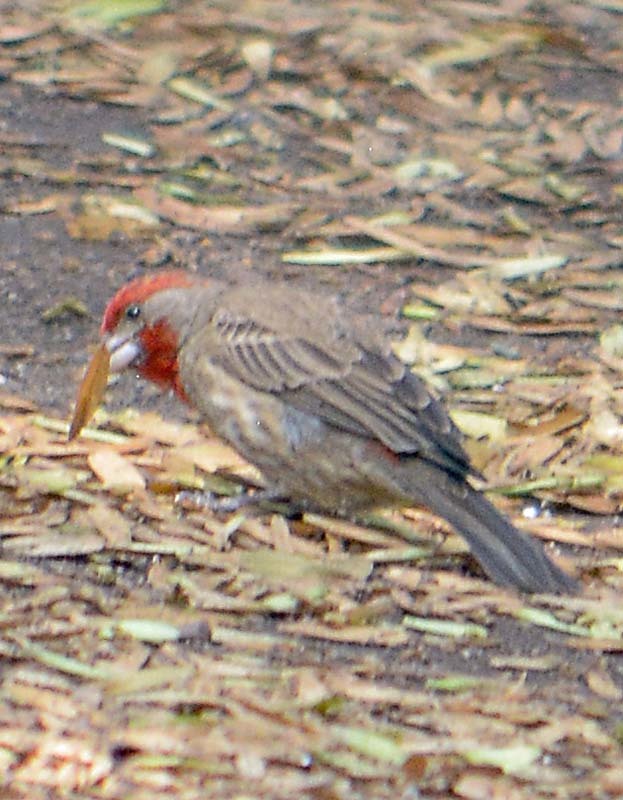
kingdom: Animalia
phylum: Chordata
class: Aves
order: Passeriformes
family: Fringillidae
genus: Haemorhous
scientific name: Haemorhous mexicanus
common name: House finch
